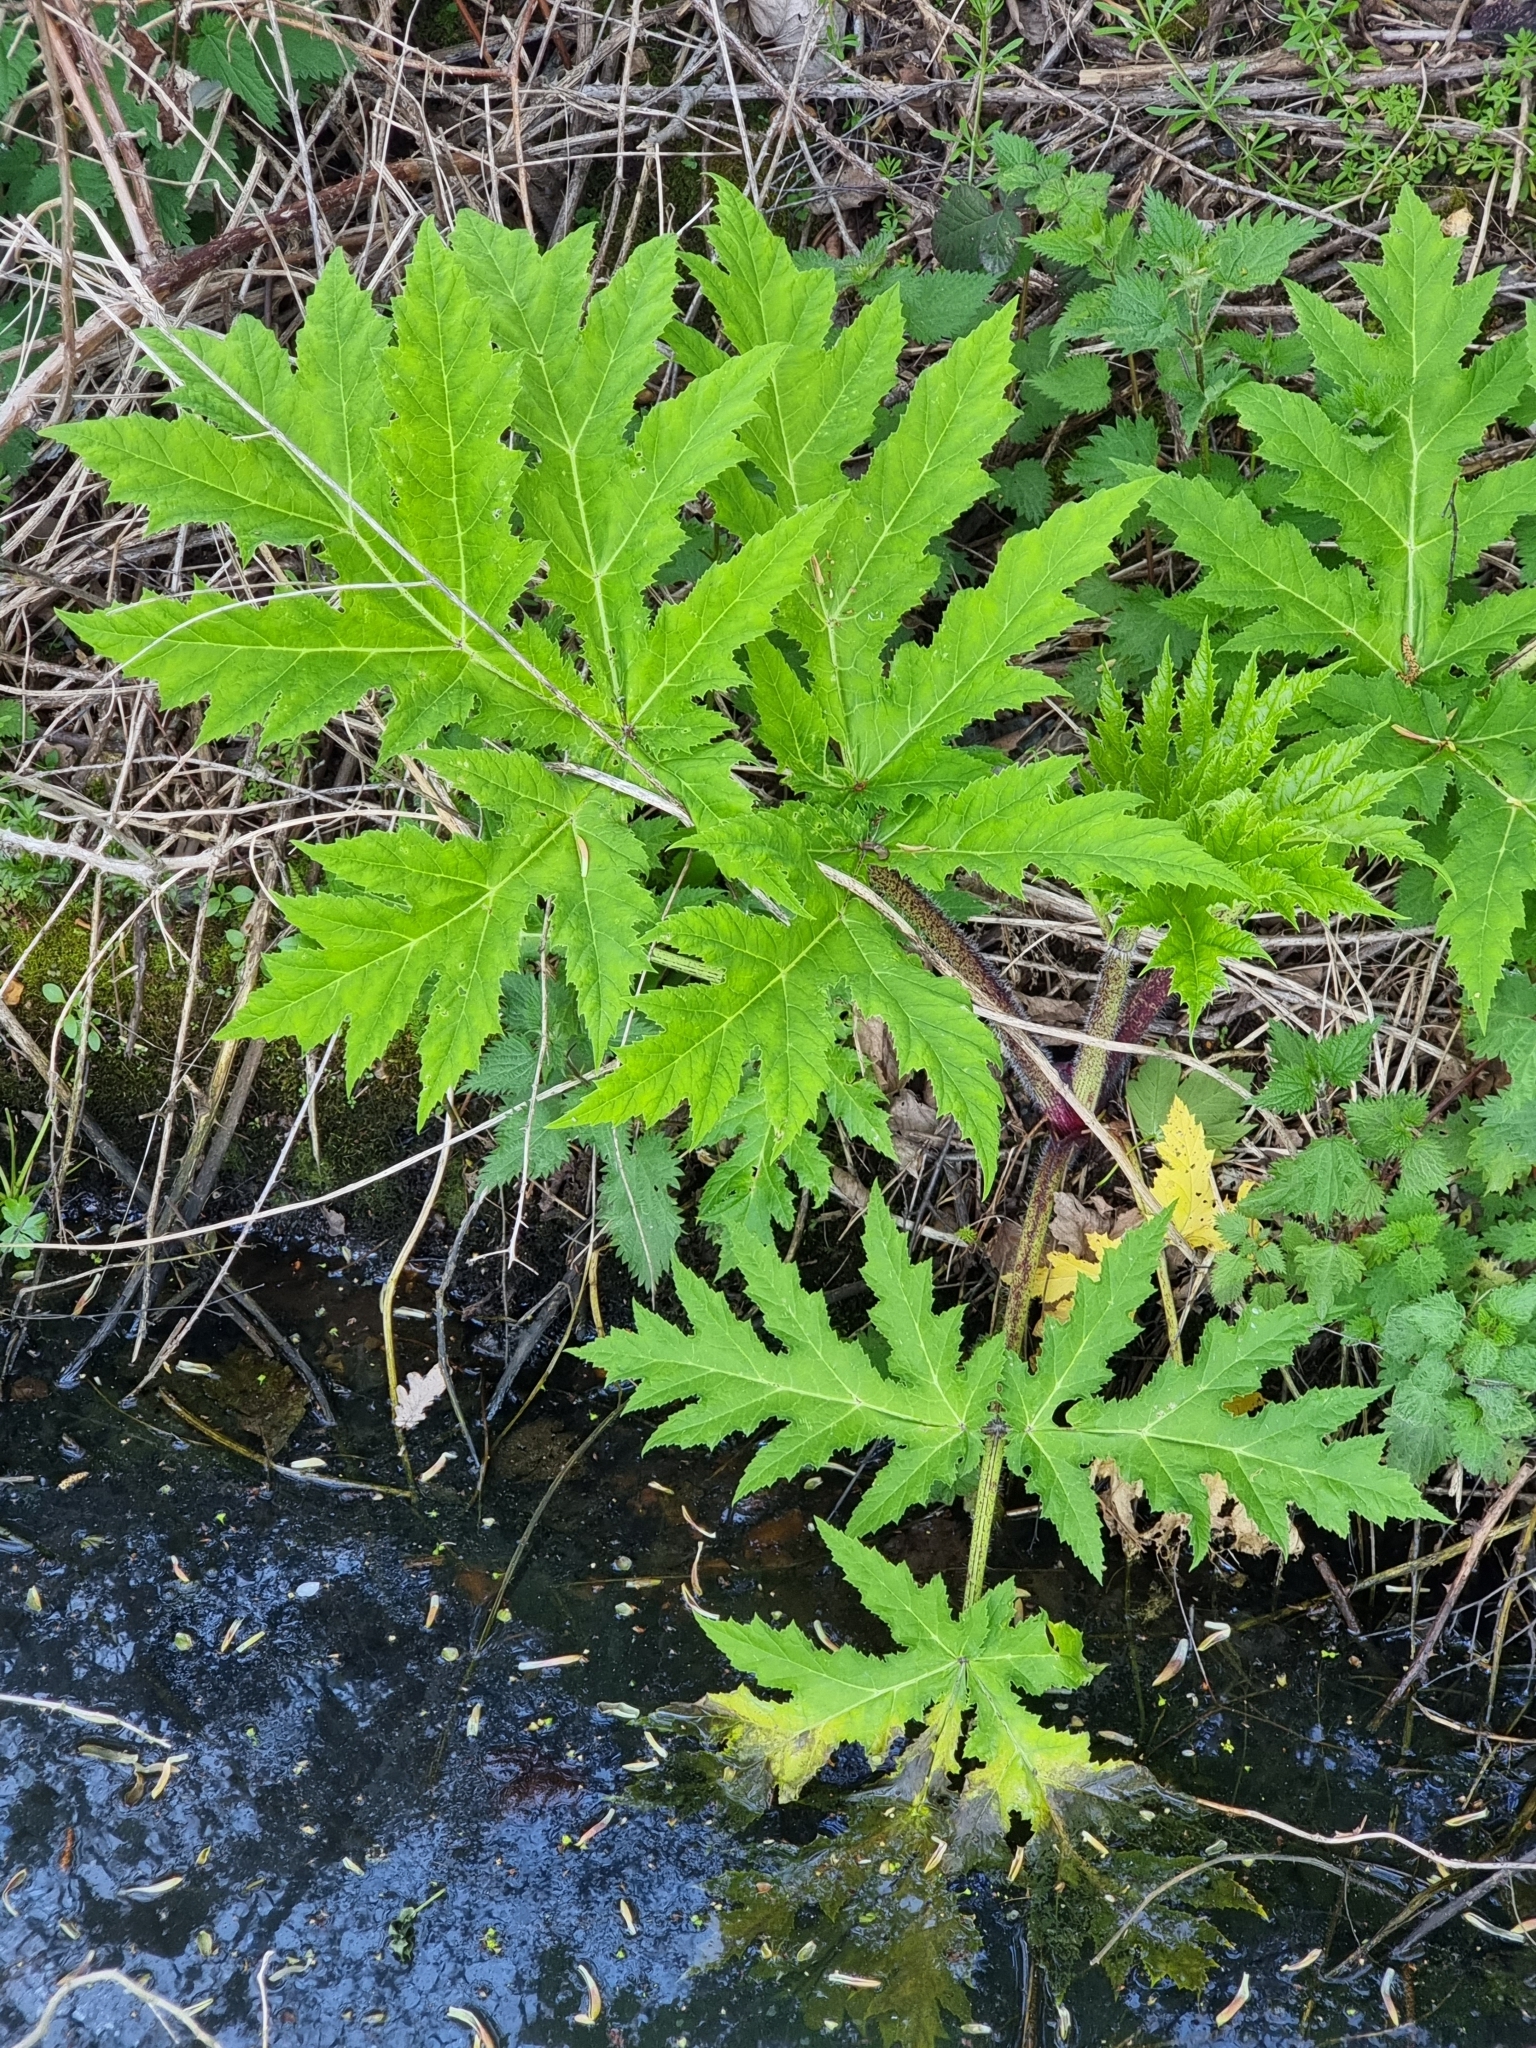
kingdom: Plantae
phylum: Tracheophyta
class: Magnoliopsida
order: Apiales
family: Apiaceae
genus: Heracleum
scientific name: Heracleum mantegazzianum
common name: Giant hogweed
